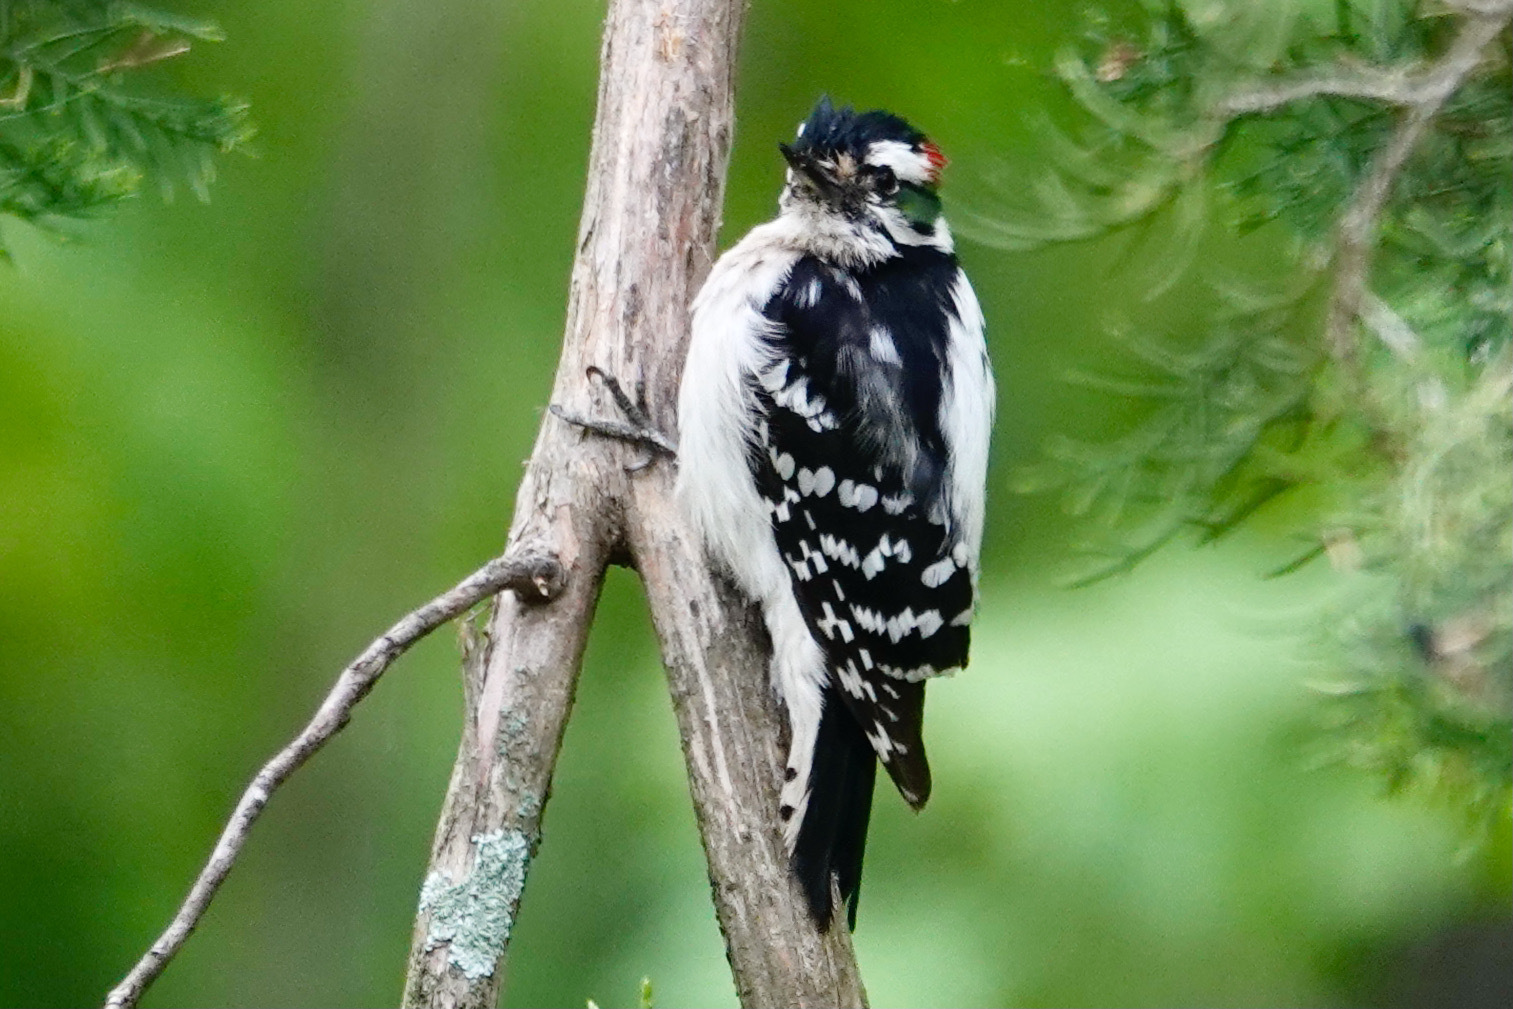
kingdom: Animalia
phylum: Chordata
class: Aves
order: Piciformes
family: Picidae
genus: Dryobates
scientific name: Dryobates pubescens
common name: Downy woodpecker
